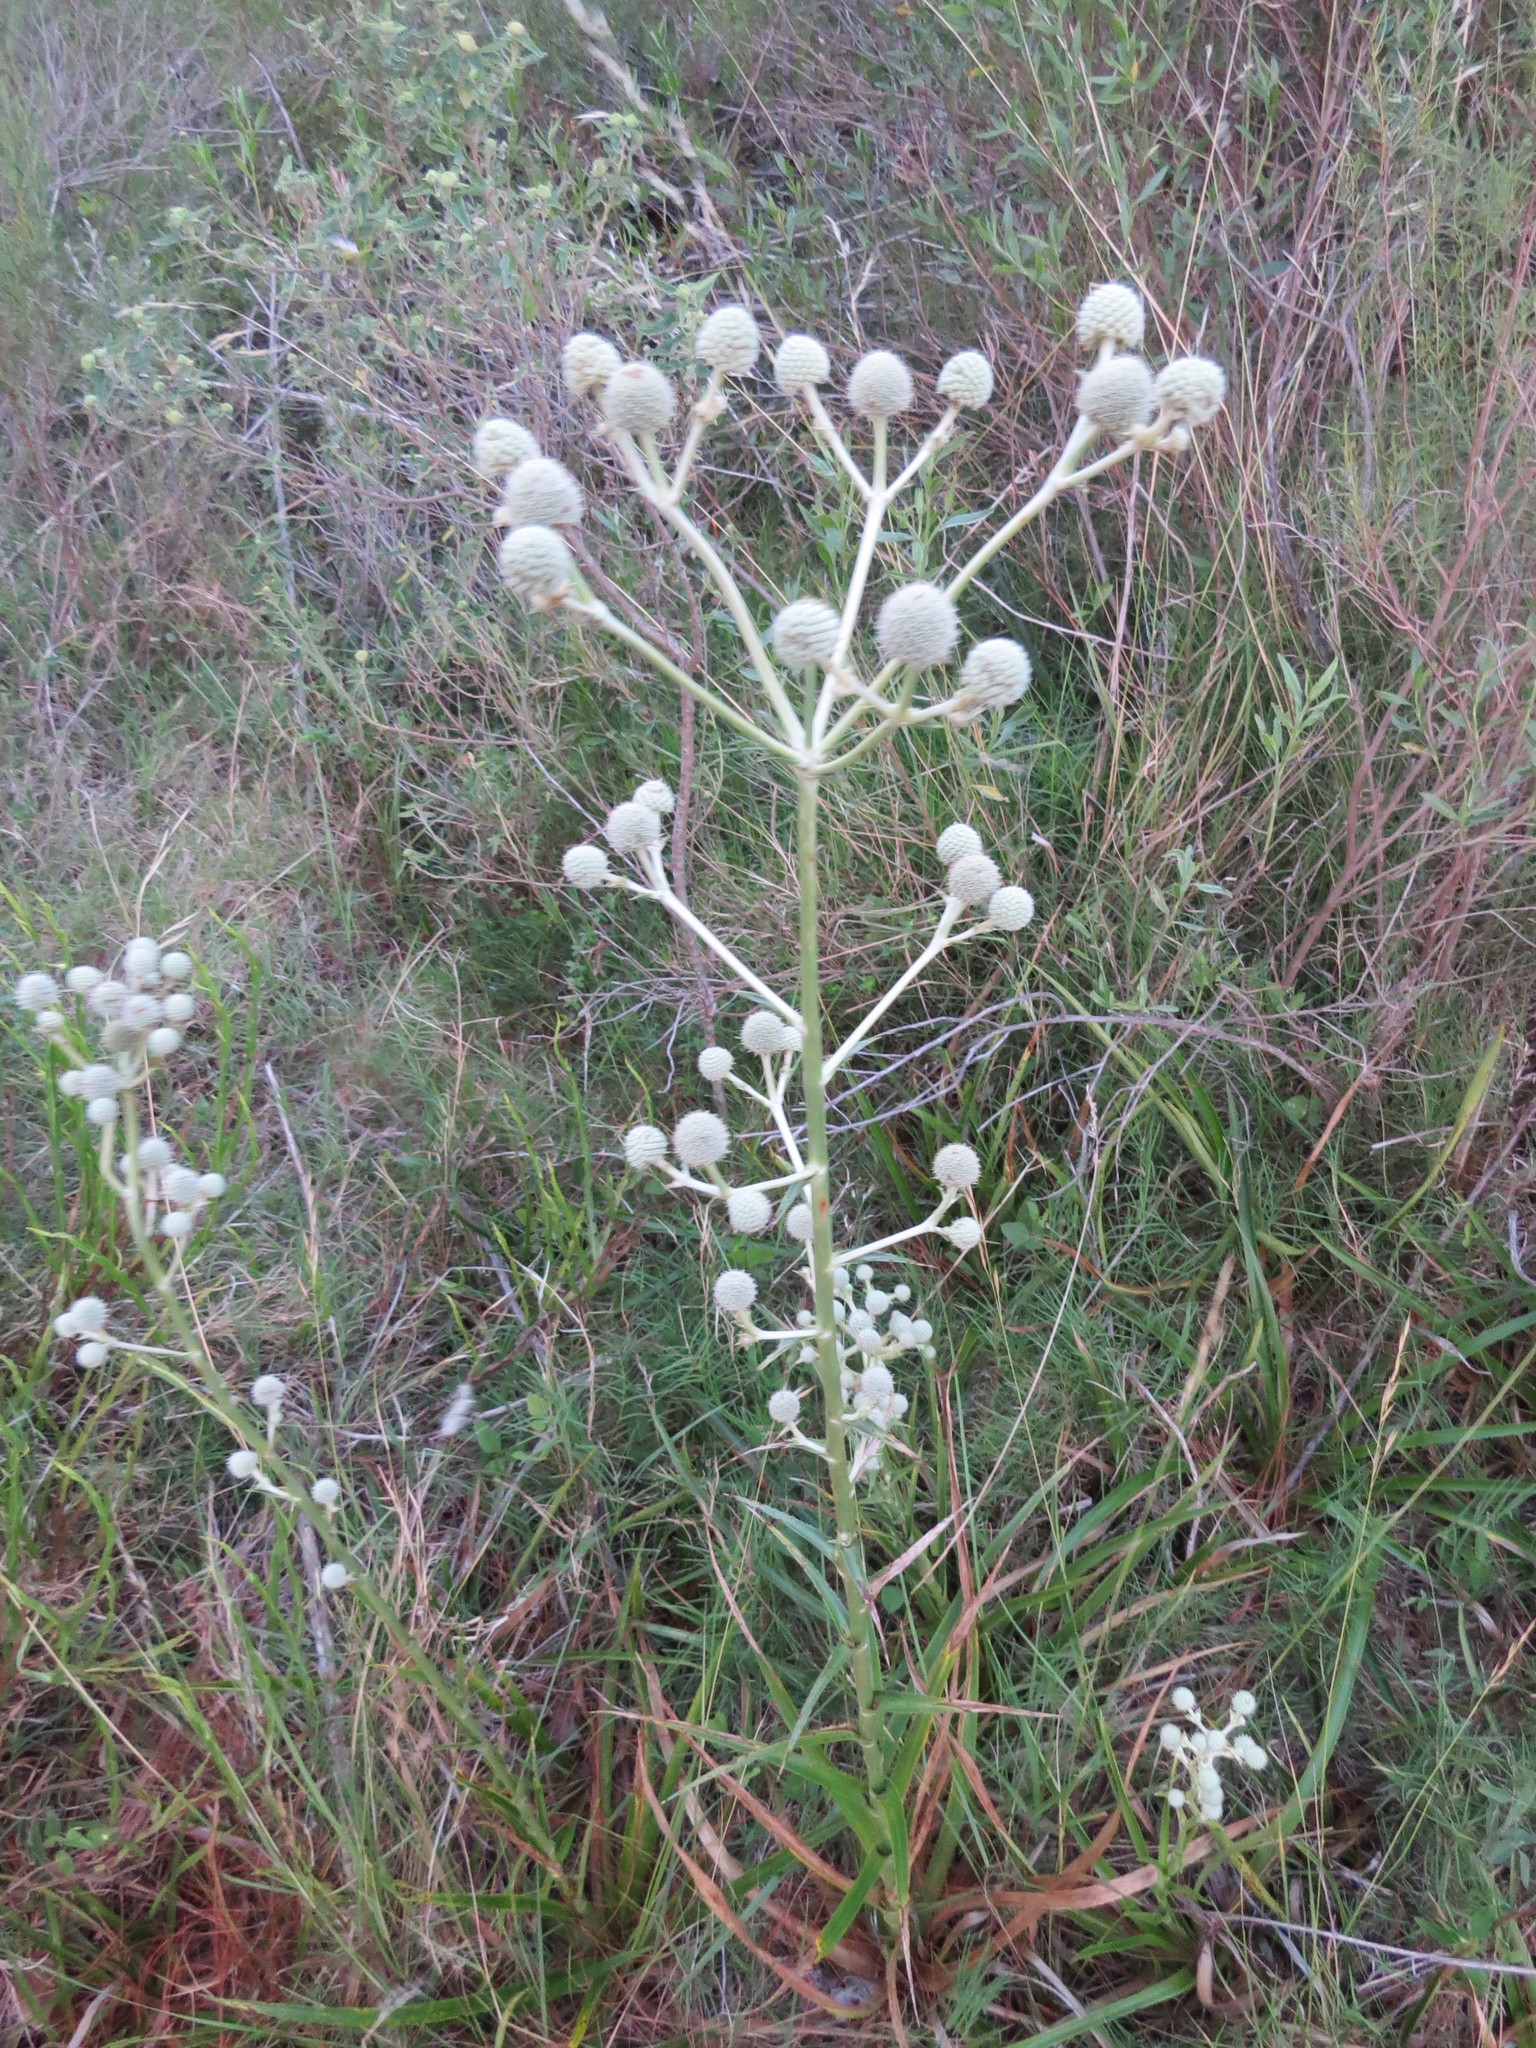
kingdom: Plantae
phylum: Tracheophyta
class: Magnoliopsida
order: Apiales
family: Apiaceae
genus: Eryngium
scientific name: Eryngium horridum
